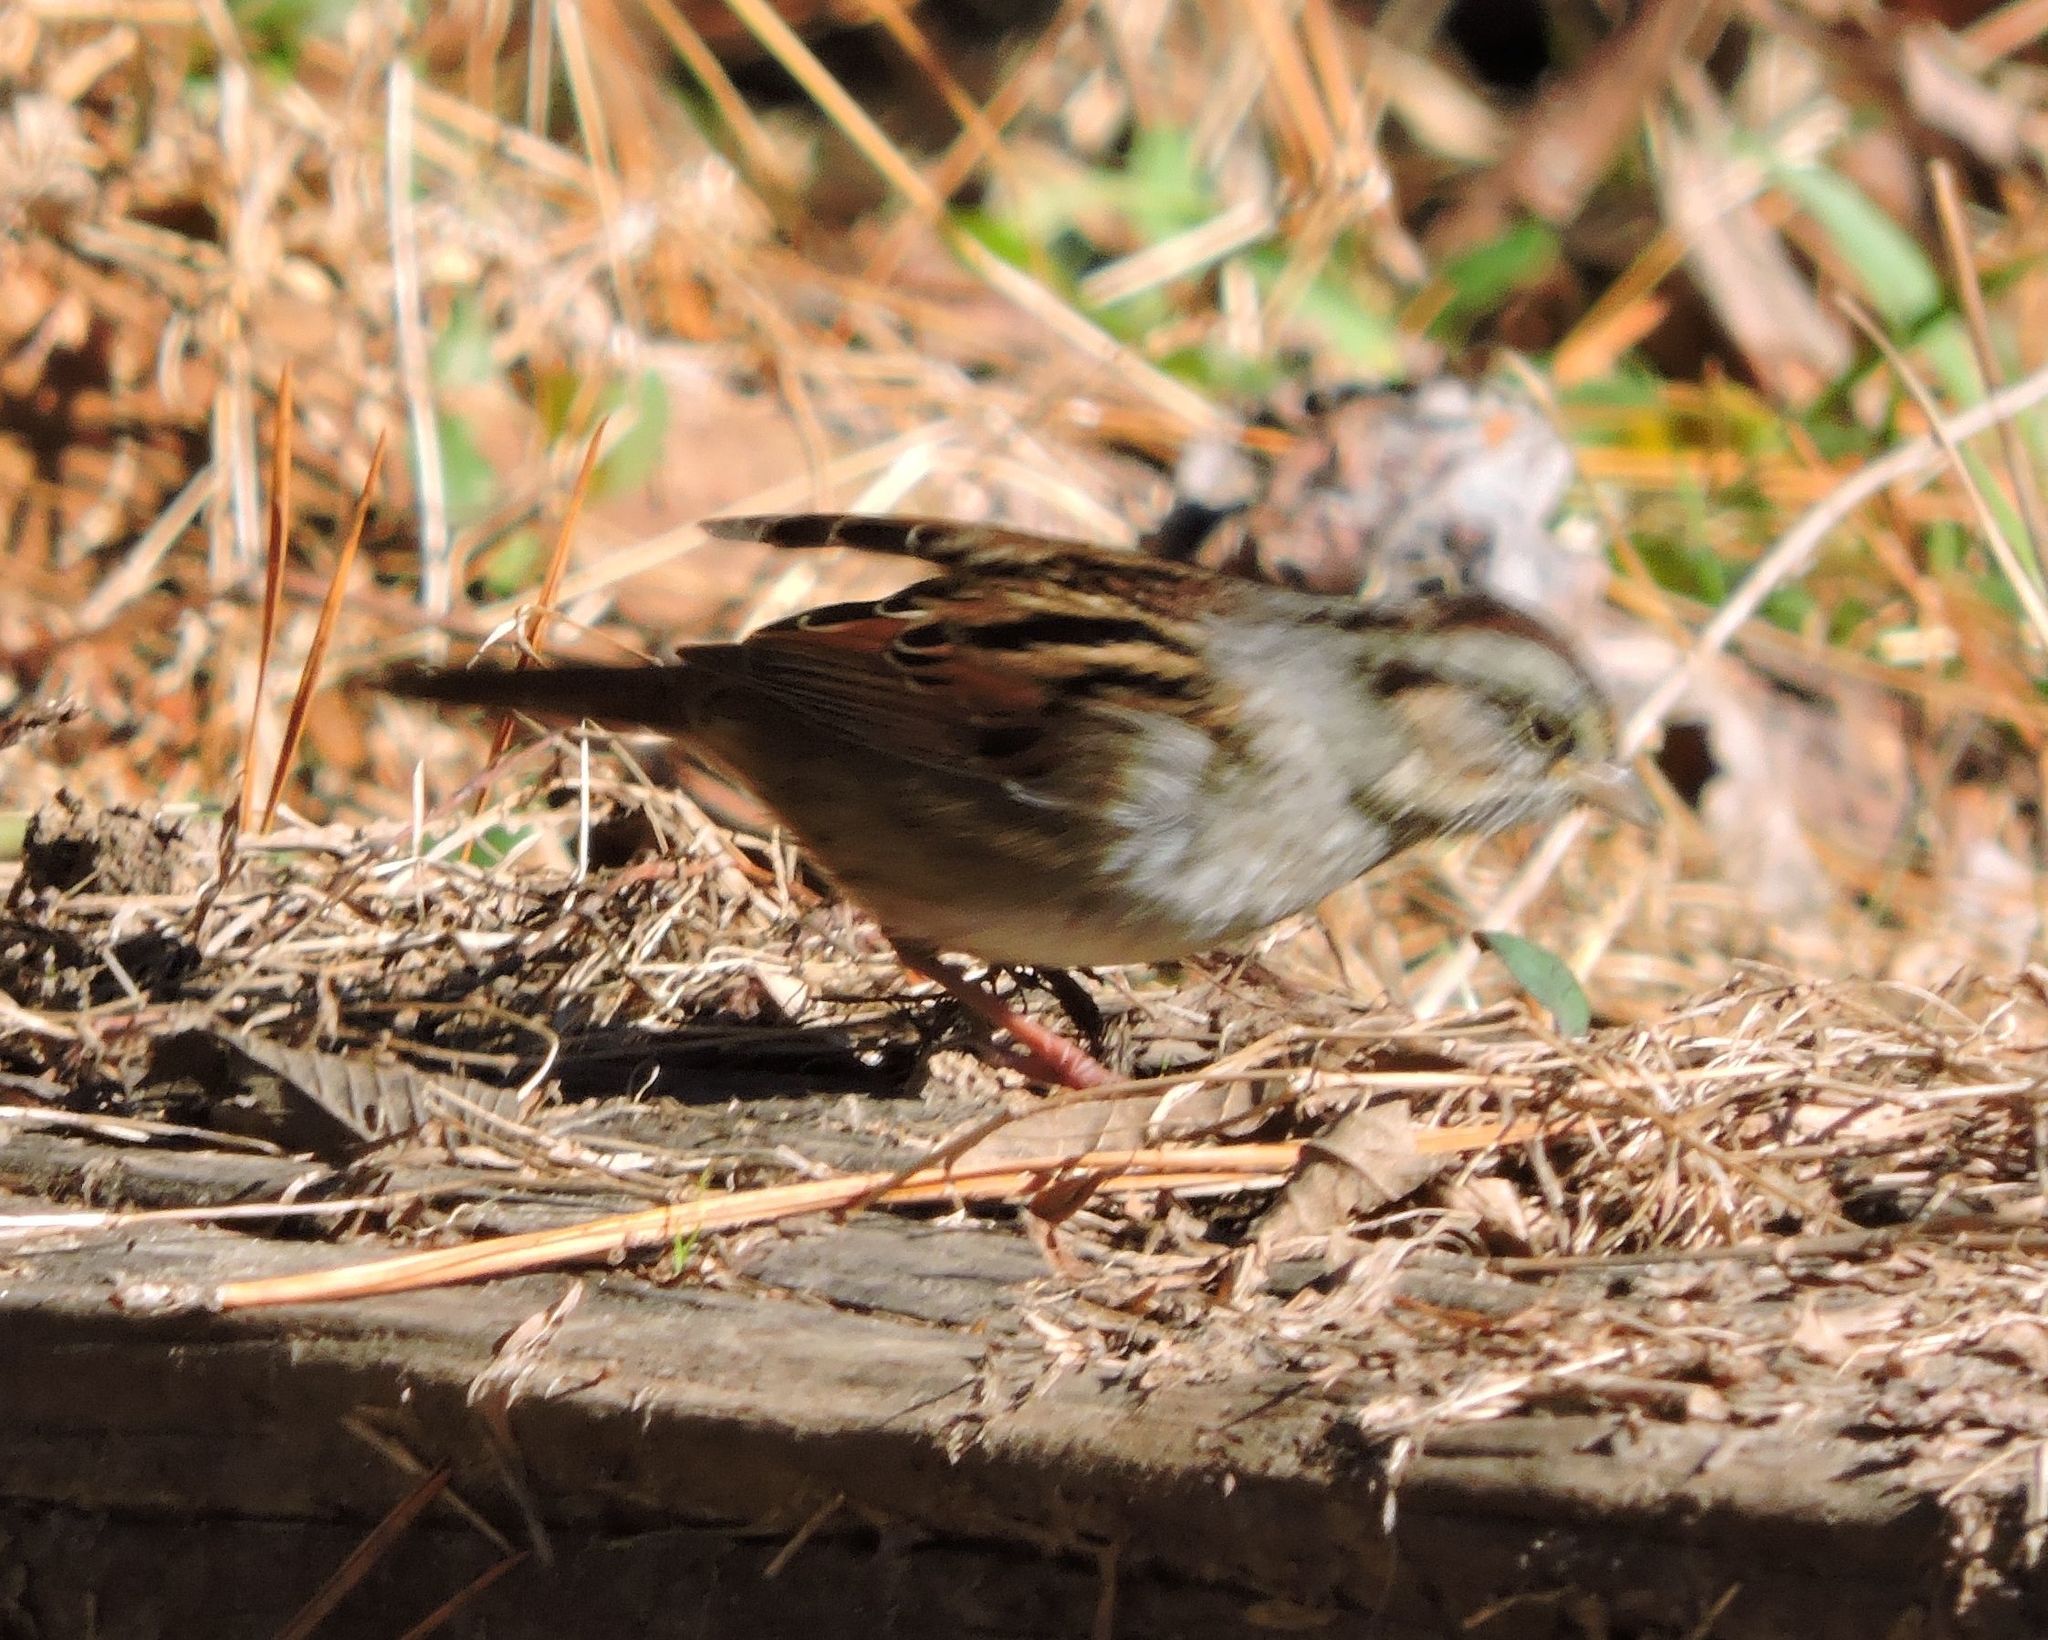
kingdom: Animalia
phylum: Chordata
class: Aves
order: Passeriformes
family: Passerellidae
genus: Melospiza
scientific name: Melospiza georgiana
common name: Swamp sparrow
